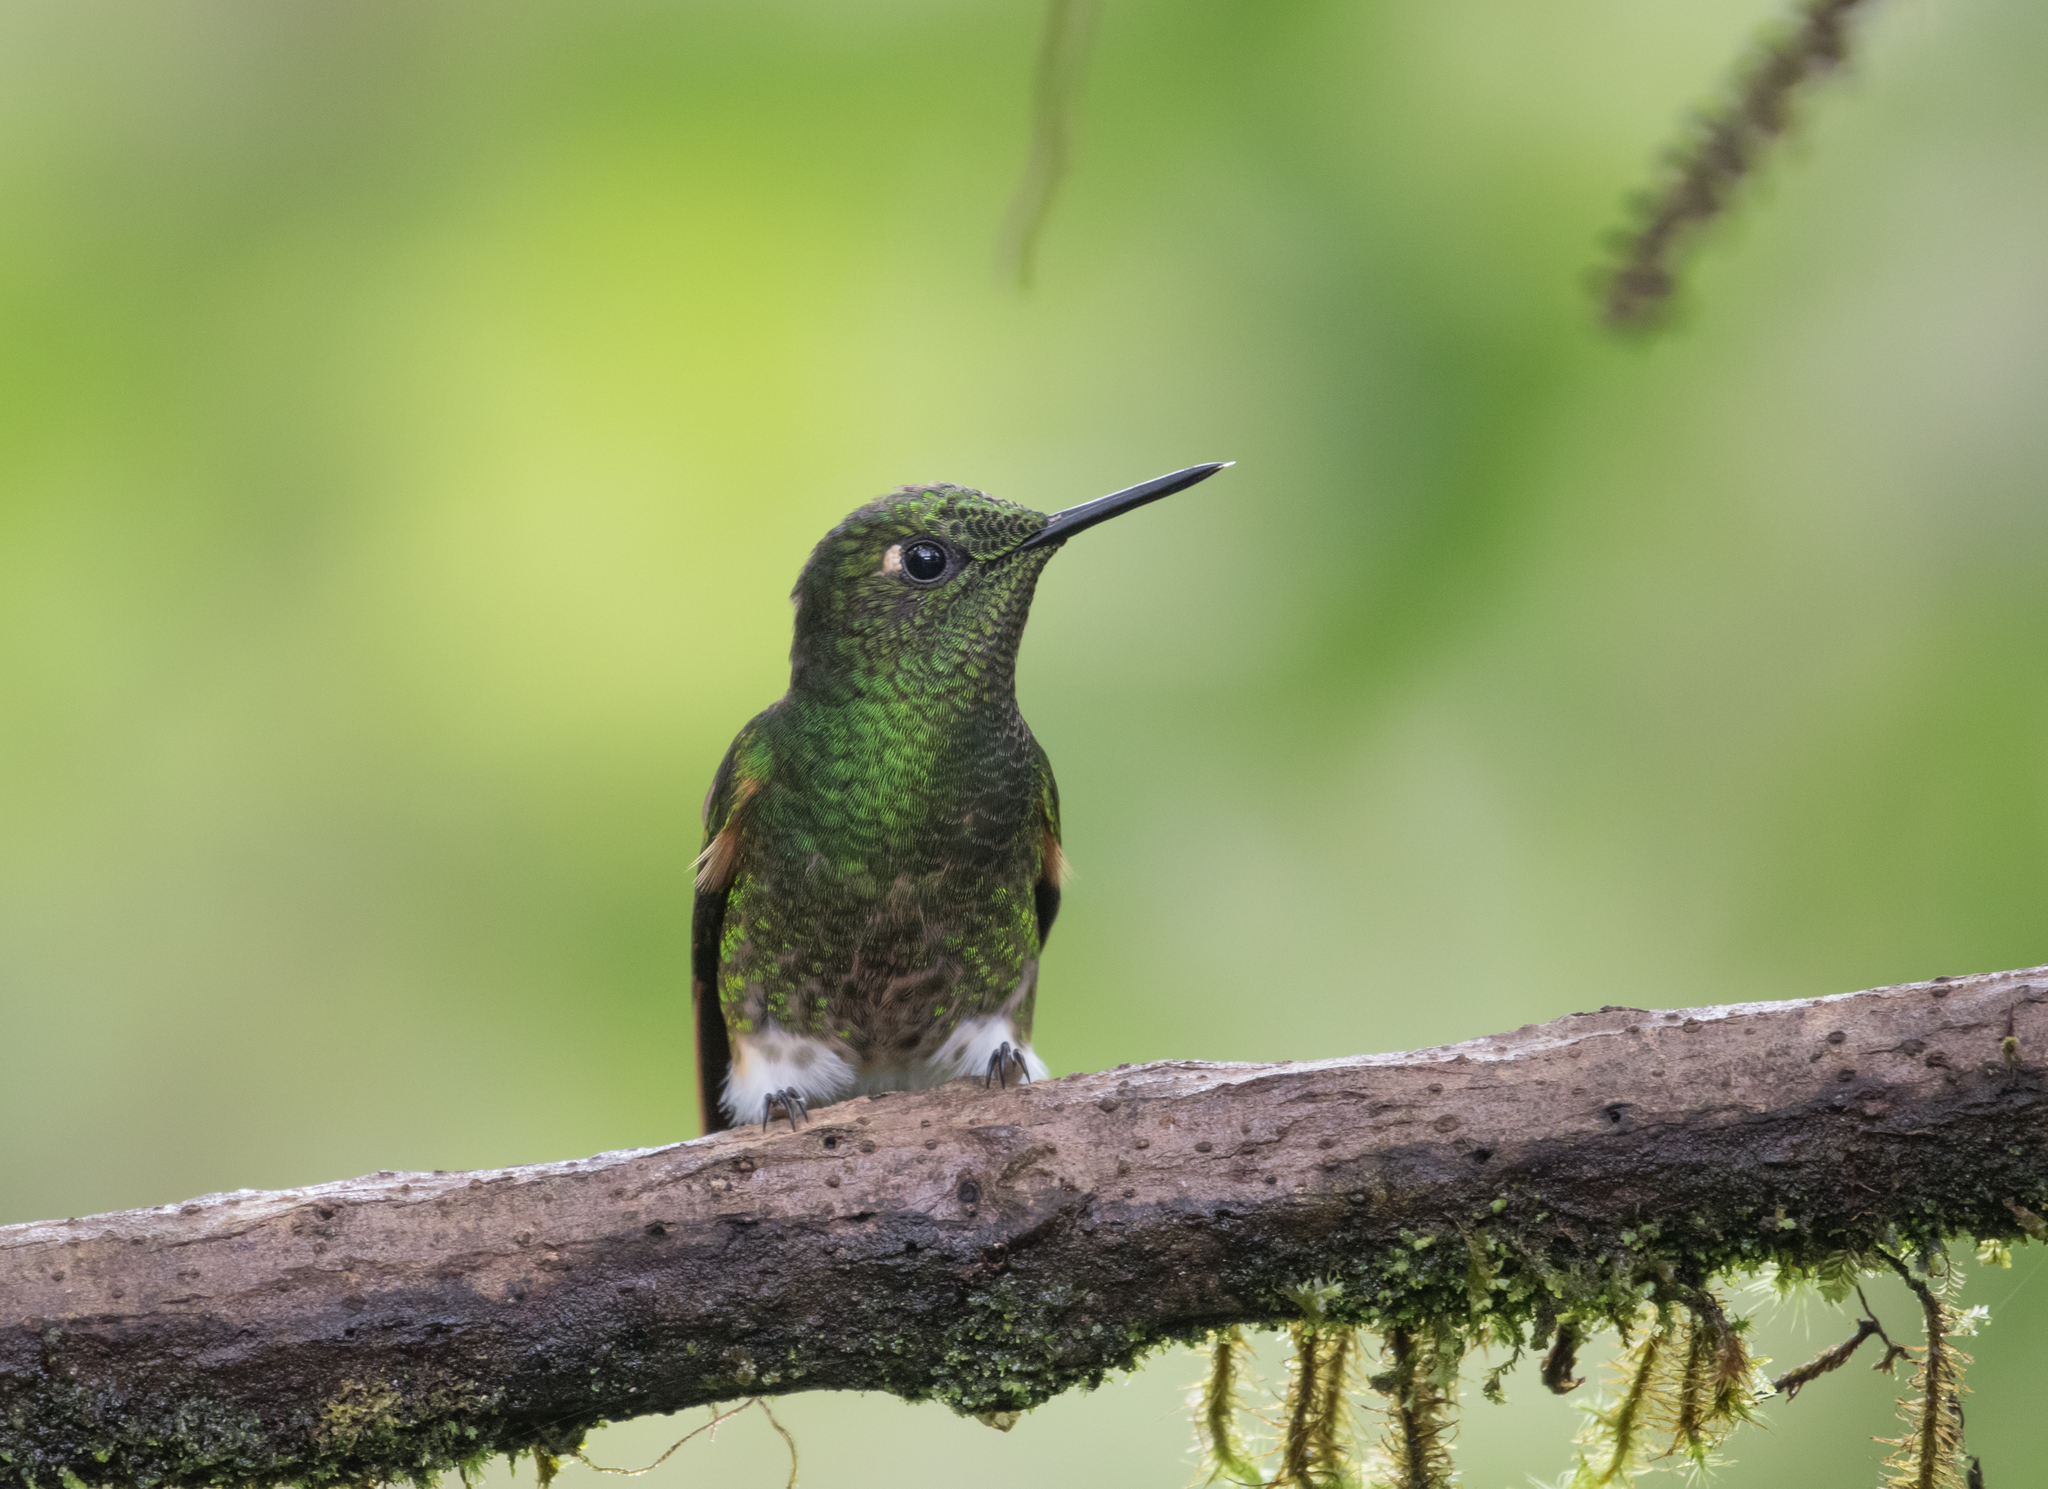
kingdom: Animalia
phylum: Chordata
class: Aves
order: Apodiformes
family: Trochilidae
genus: Boissonneaua
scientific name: Boissonneaua flavescens
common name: Buff-tailed coronet
